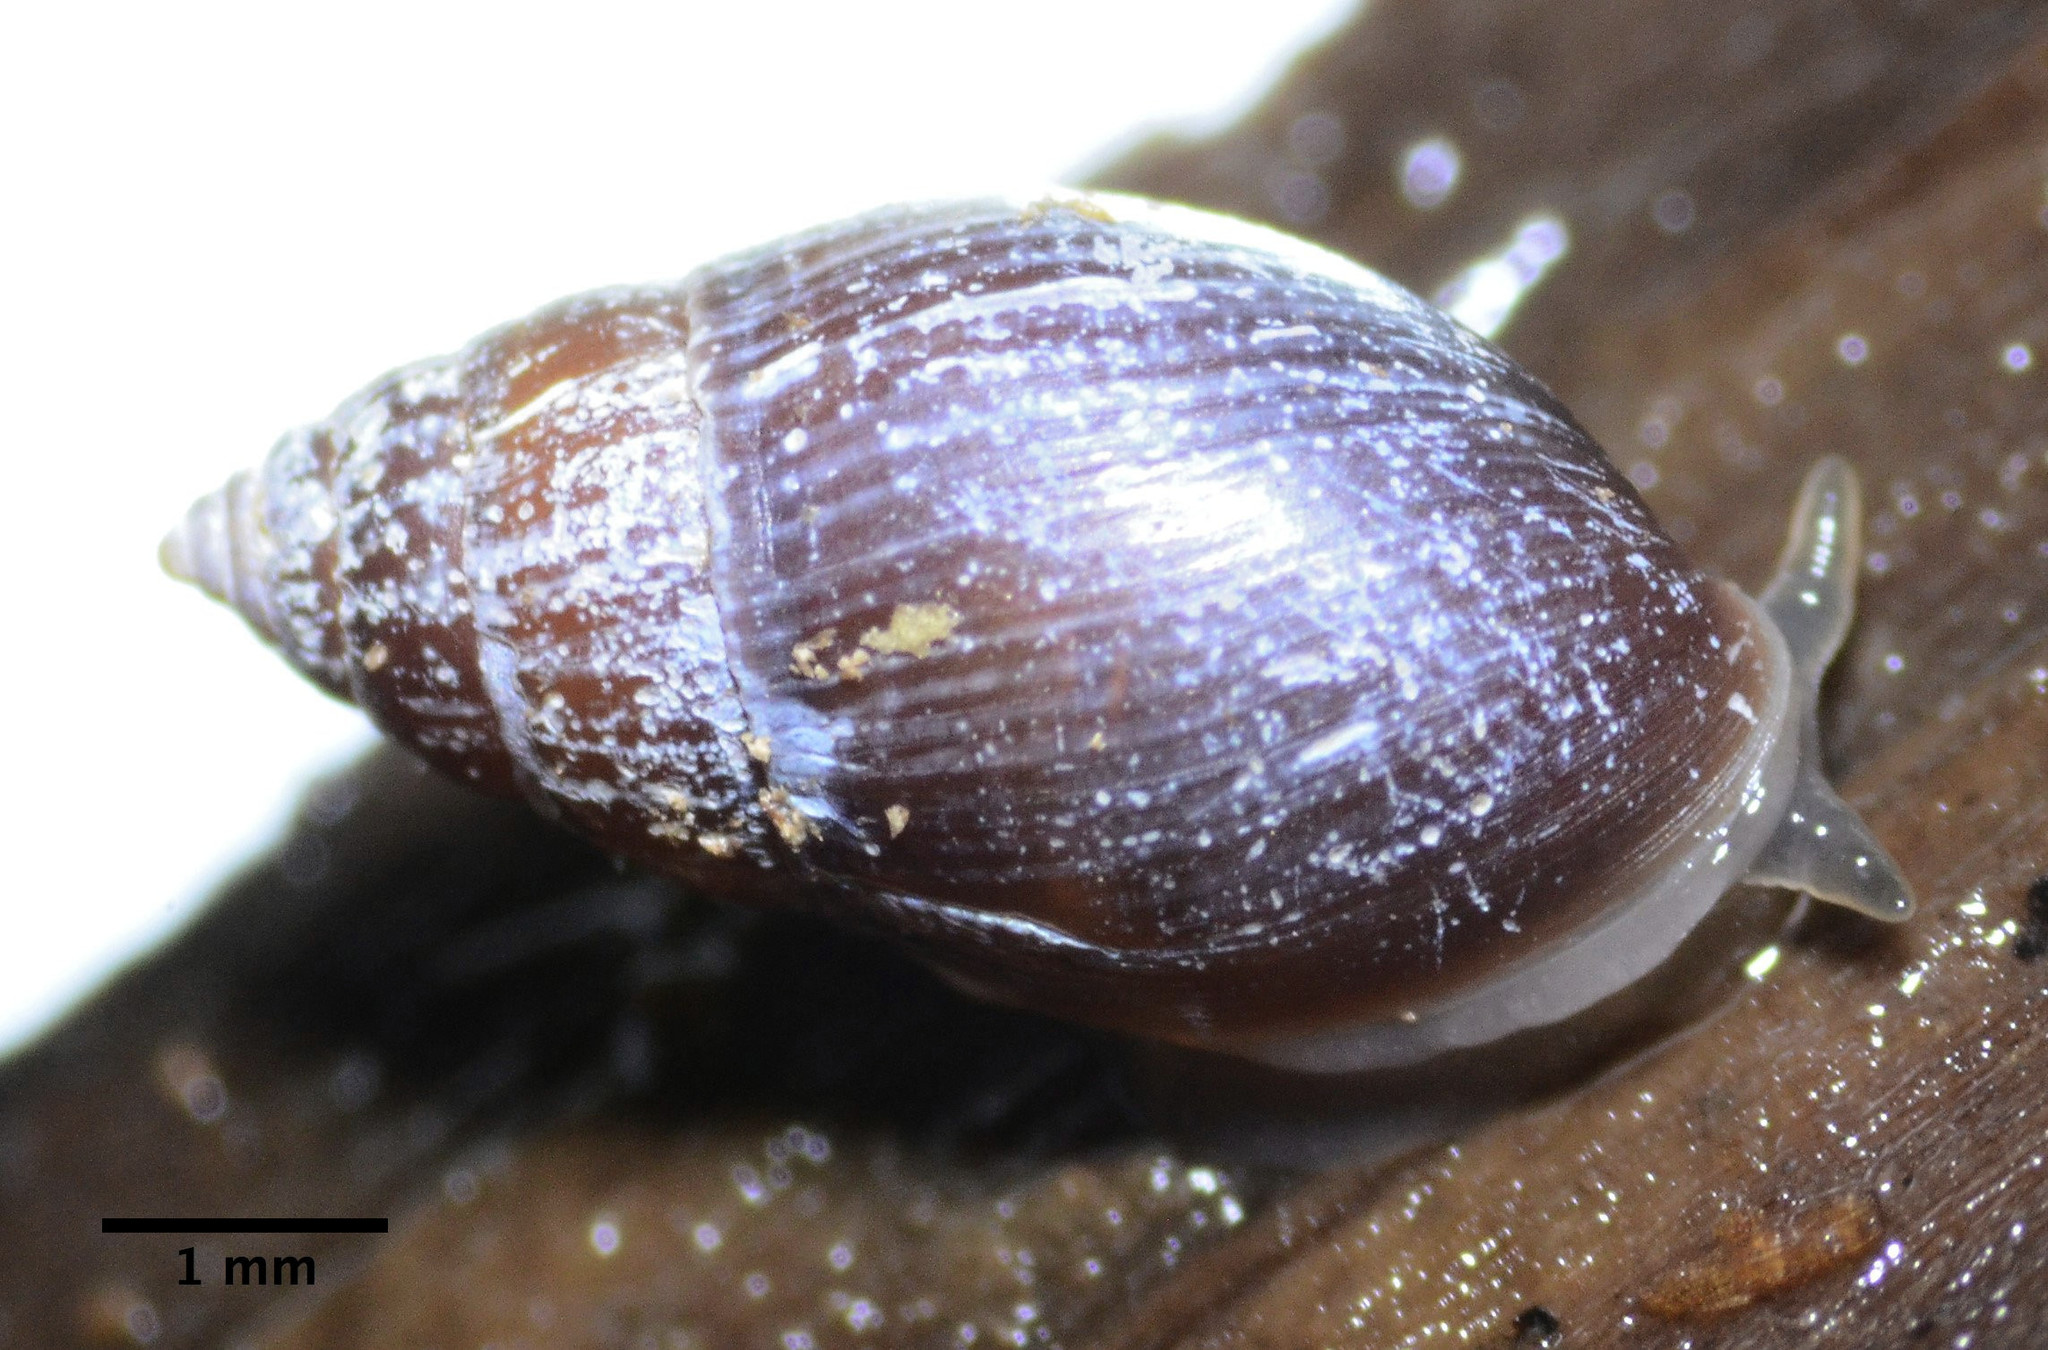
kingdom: Animalia
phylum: Mollusca
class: Gastropoda
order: Ellobiida
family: Ellobiidae
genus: Myosotella
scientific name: Myosotella myosotis
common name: Mouse-eared snail
